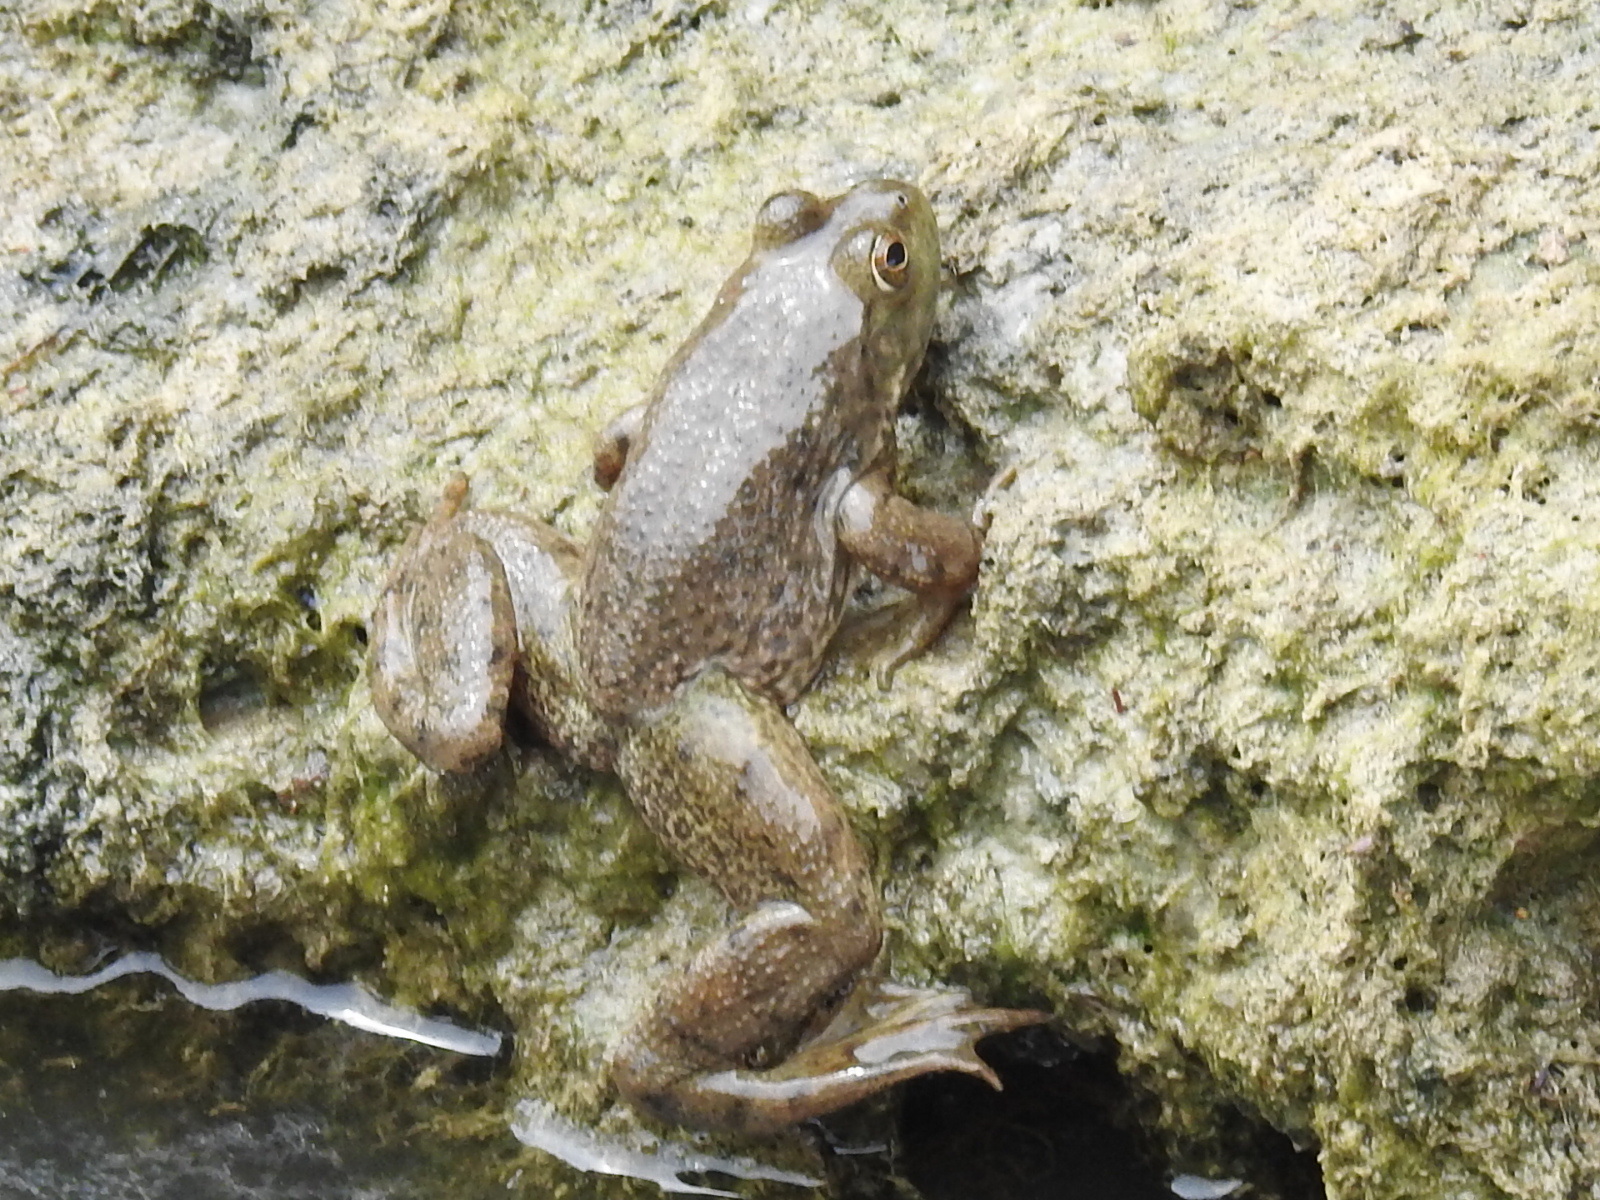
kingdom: Animalia
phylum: Chordata
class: Amphibia
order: Anura
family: Ranidae
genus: Lithobates
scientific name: Lithobates catesbeianus
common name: American bullfrog
